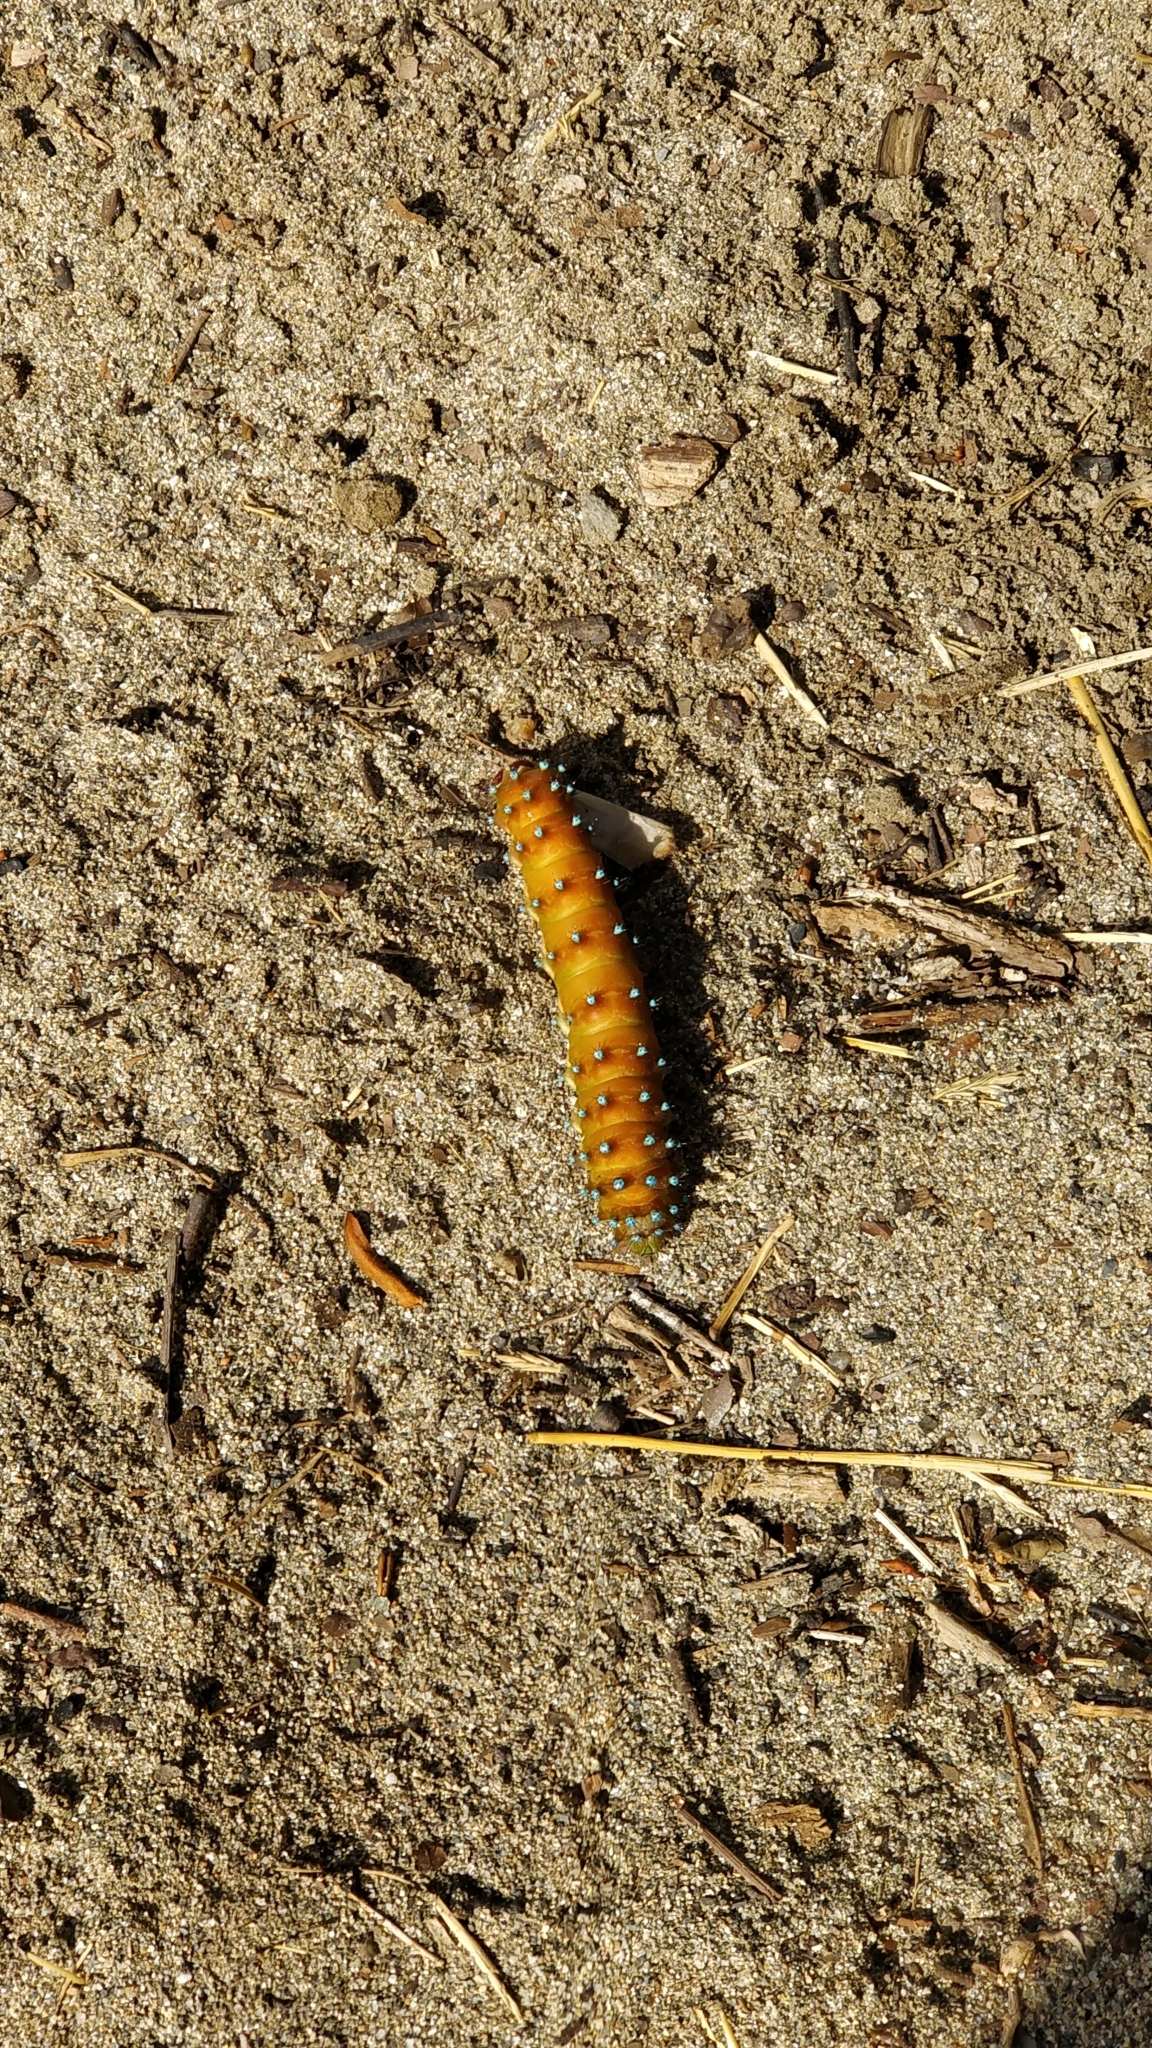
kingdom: Animalia
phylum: Arthropoda
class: Insecta
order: Lepidoptera
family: Saturniidae
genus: Saturnia
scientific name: Saturnia pyri
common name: Great peacock moth
